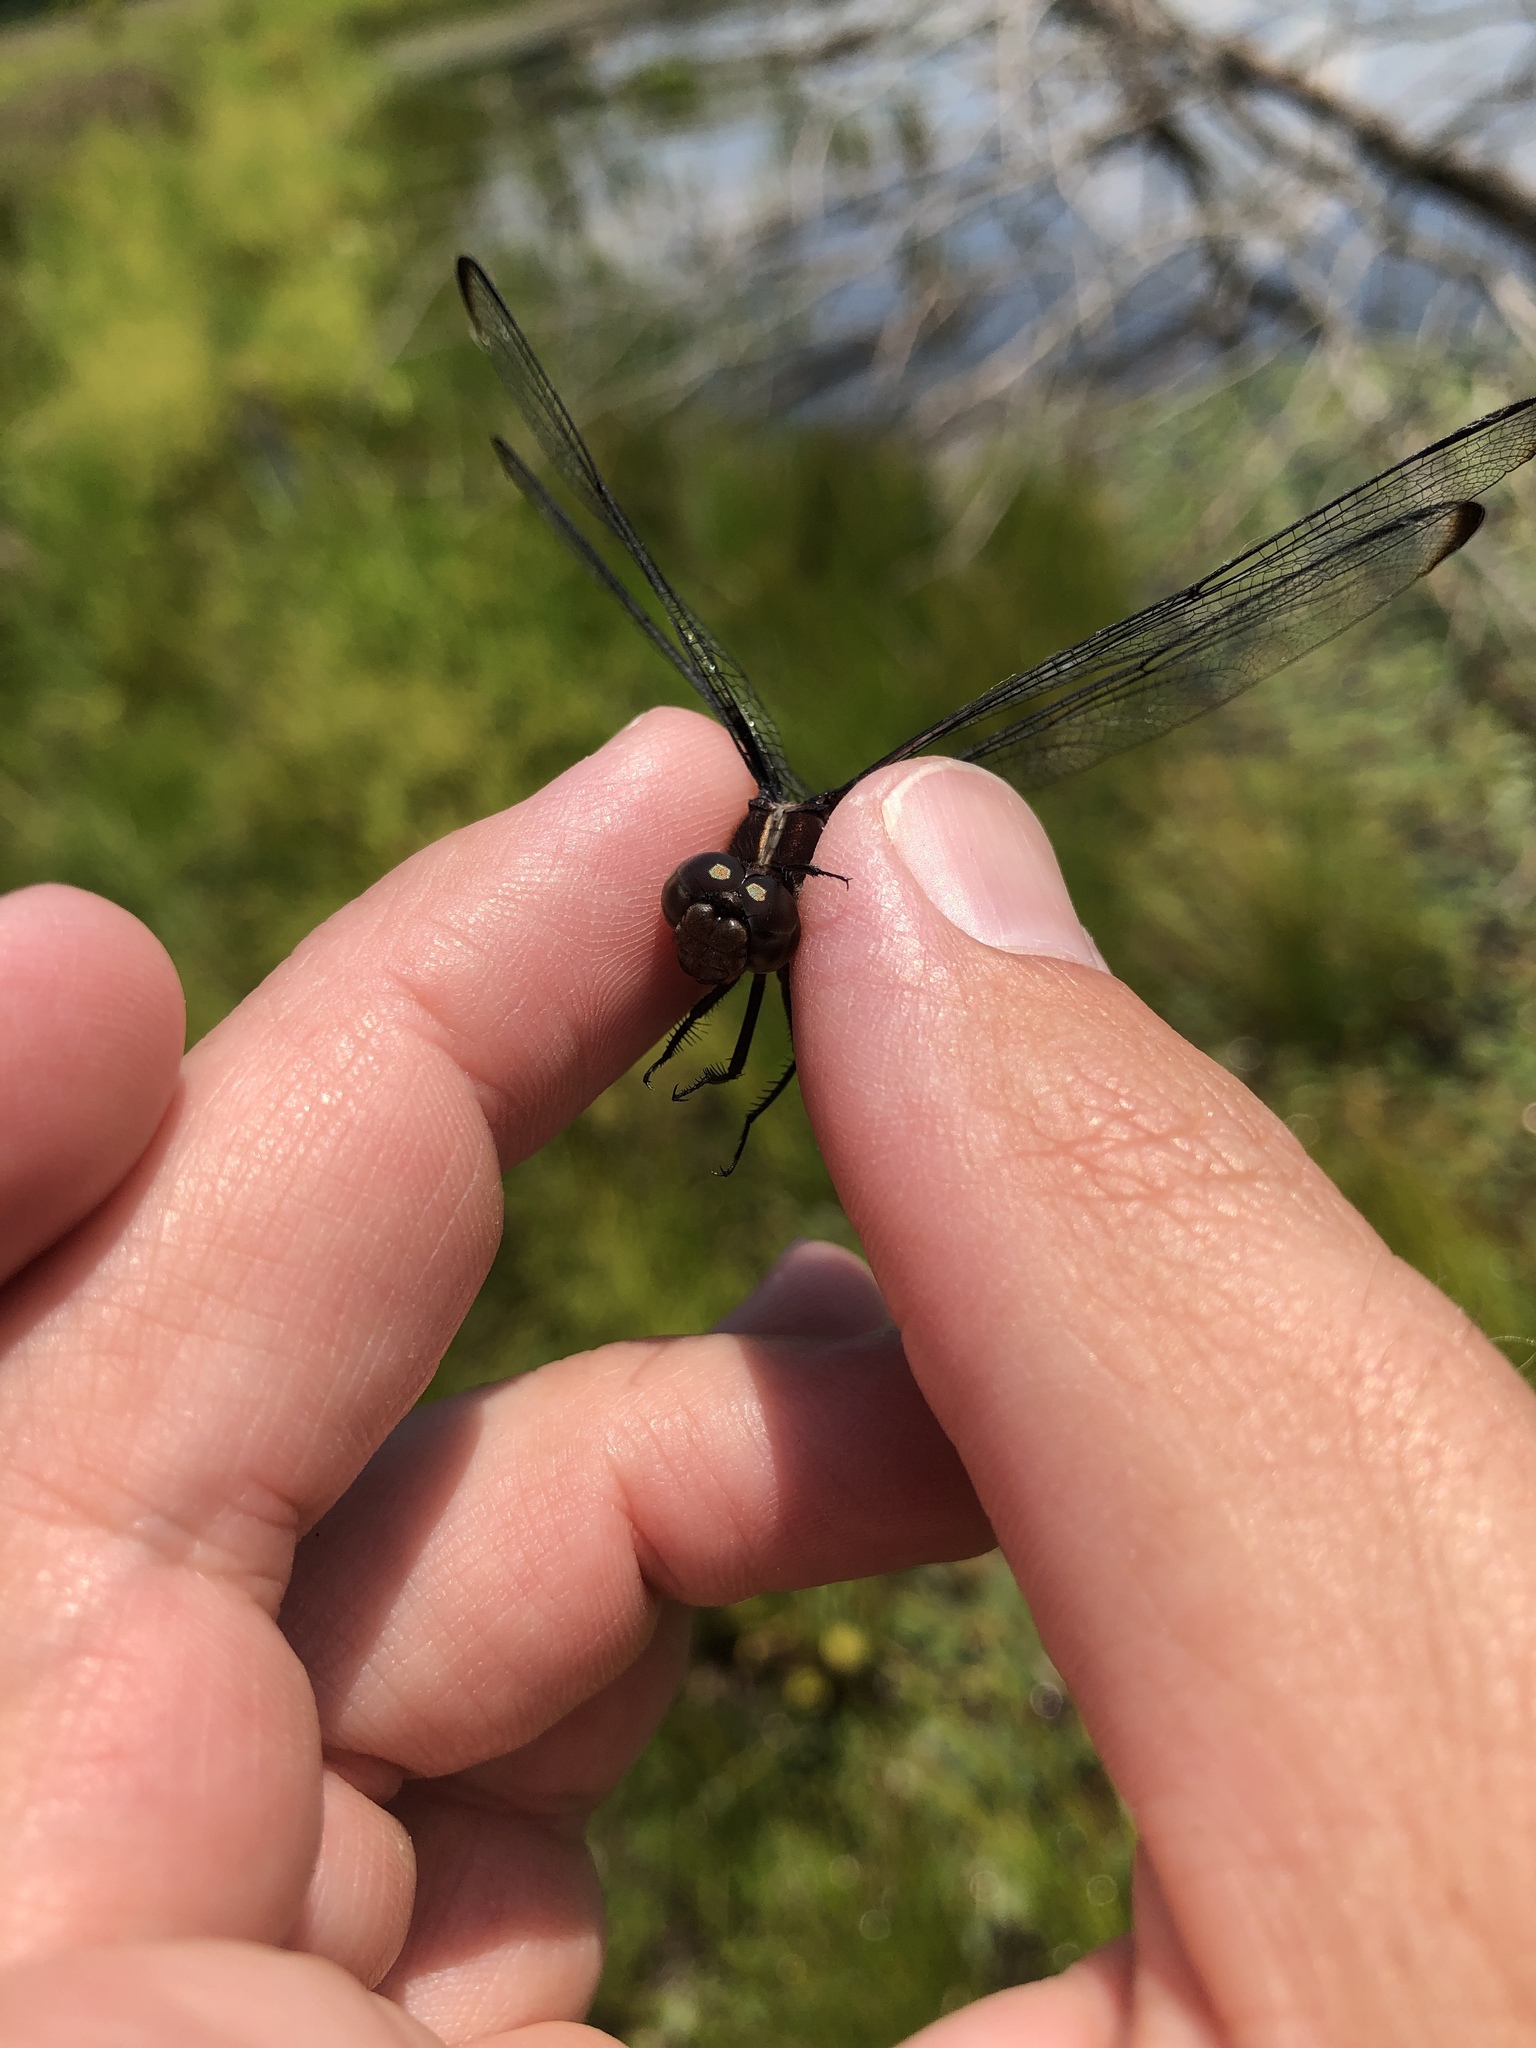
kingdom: Animalia
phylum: Arthropoda
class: Insecta
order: Odonata
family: Libellulidae
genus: Libellula
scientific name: Libellula incesta
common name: Slaty skimmer
